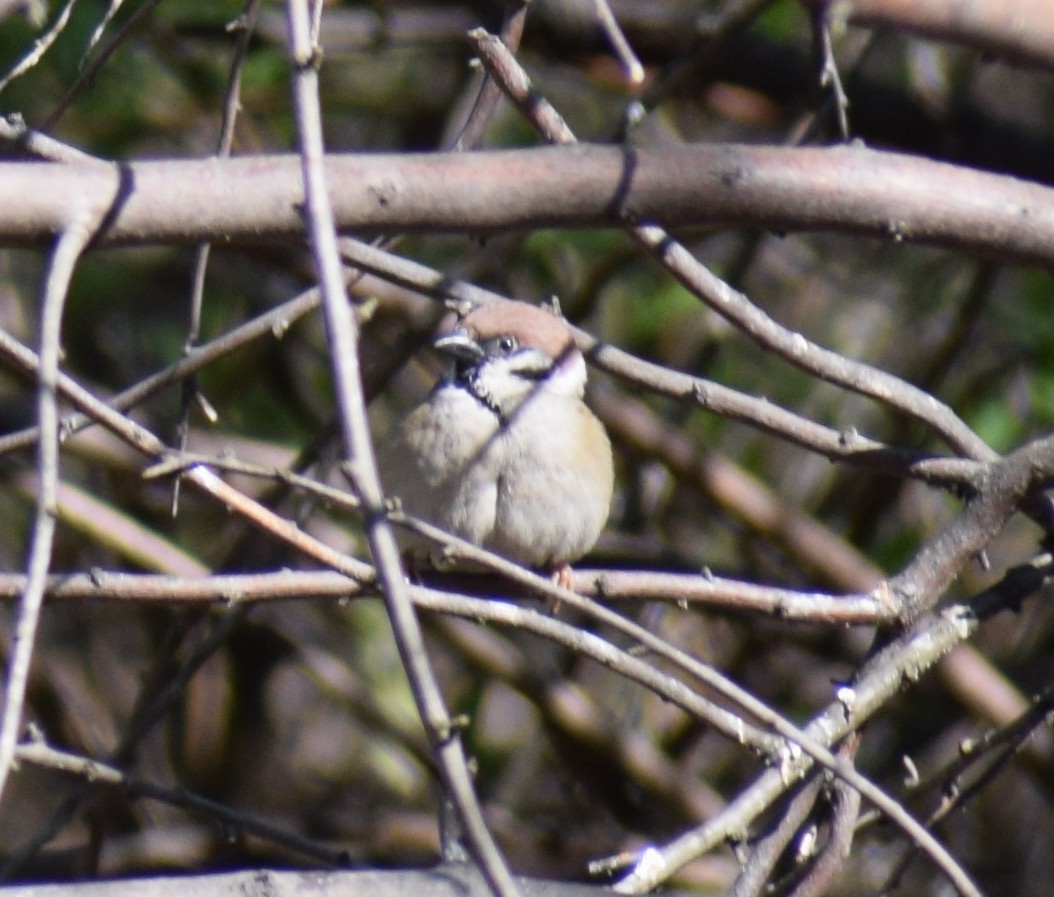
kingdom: Animalia
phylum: Chordata
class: Aves
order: Passeriformes
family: Passeridae
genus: Passer
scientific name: Passer montanus
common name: Eurasian tree sparrow
